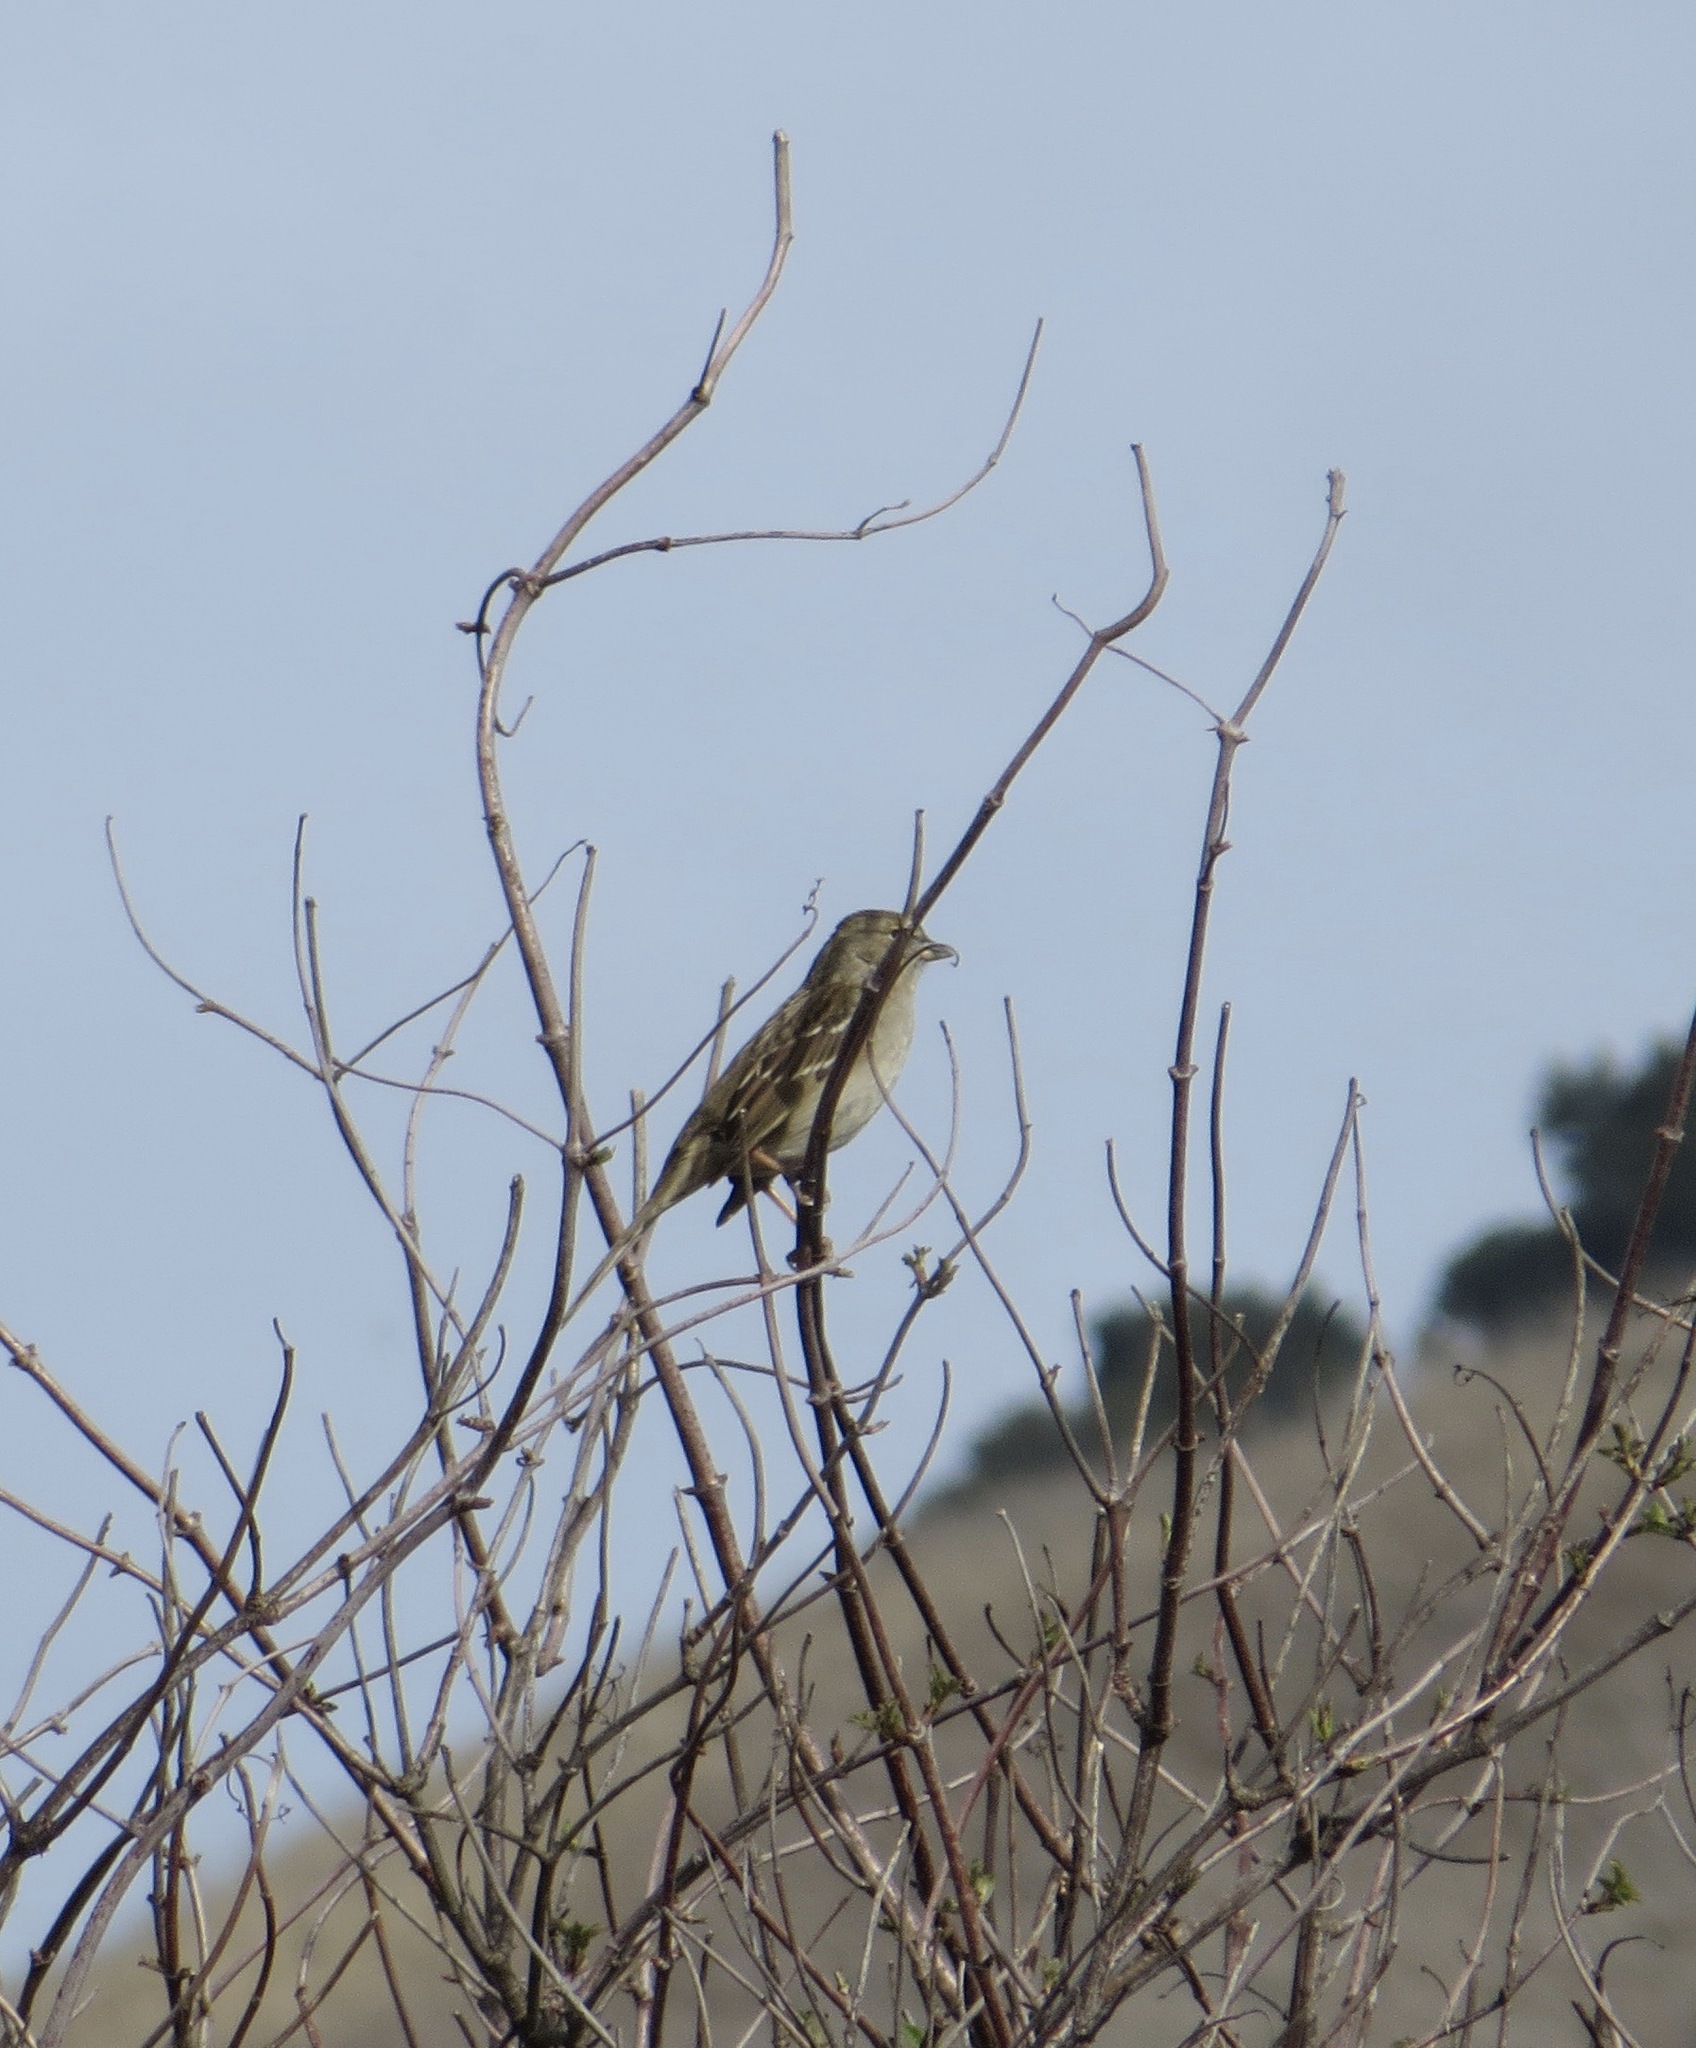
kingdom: Animalia
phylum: Chordata
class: Aves
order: Passeriformes
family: Passerellidae
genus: Zonotrichia
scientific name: Zonotrichia atricapilla
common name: Golden-crowned sparrow
